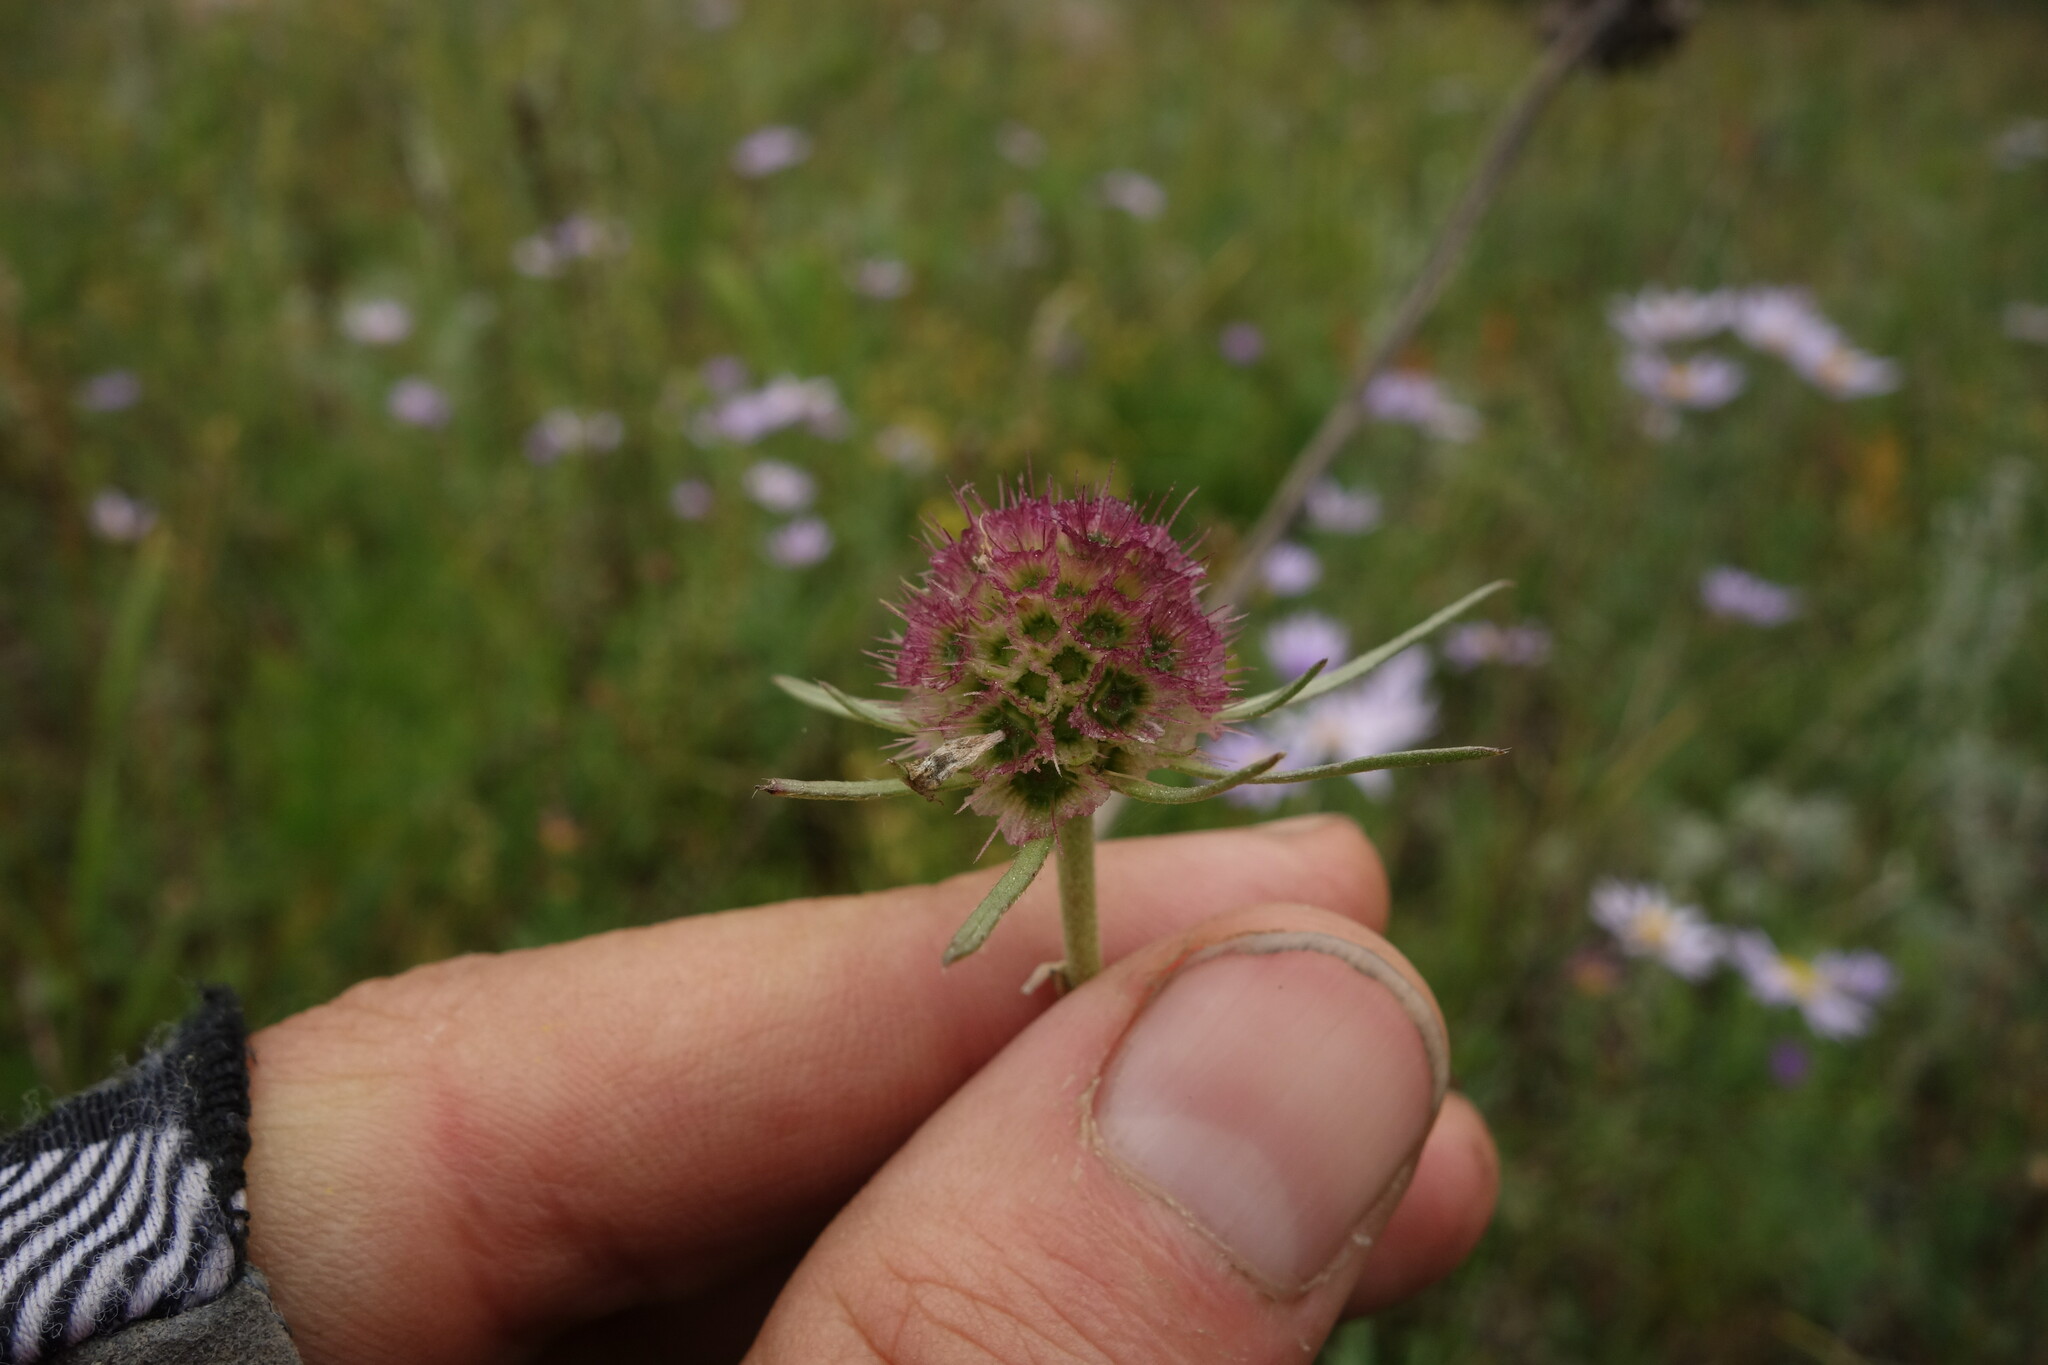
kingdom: Plantae
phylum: Tracheophyta
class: Magnoliopsida
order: Dipsacales
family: Caprifoliaceae
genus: Scabiosa
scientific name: Scabiosa comosa
